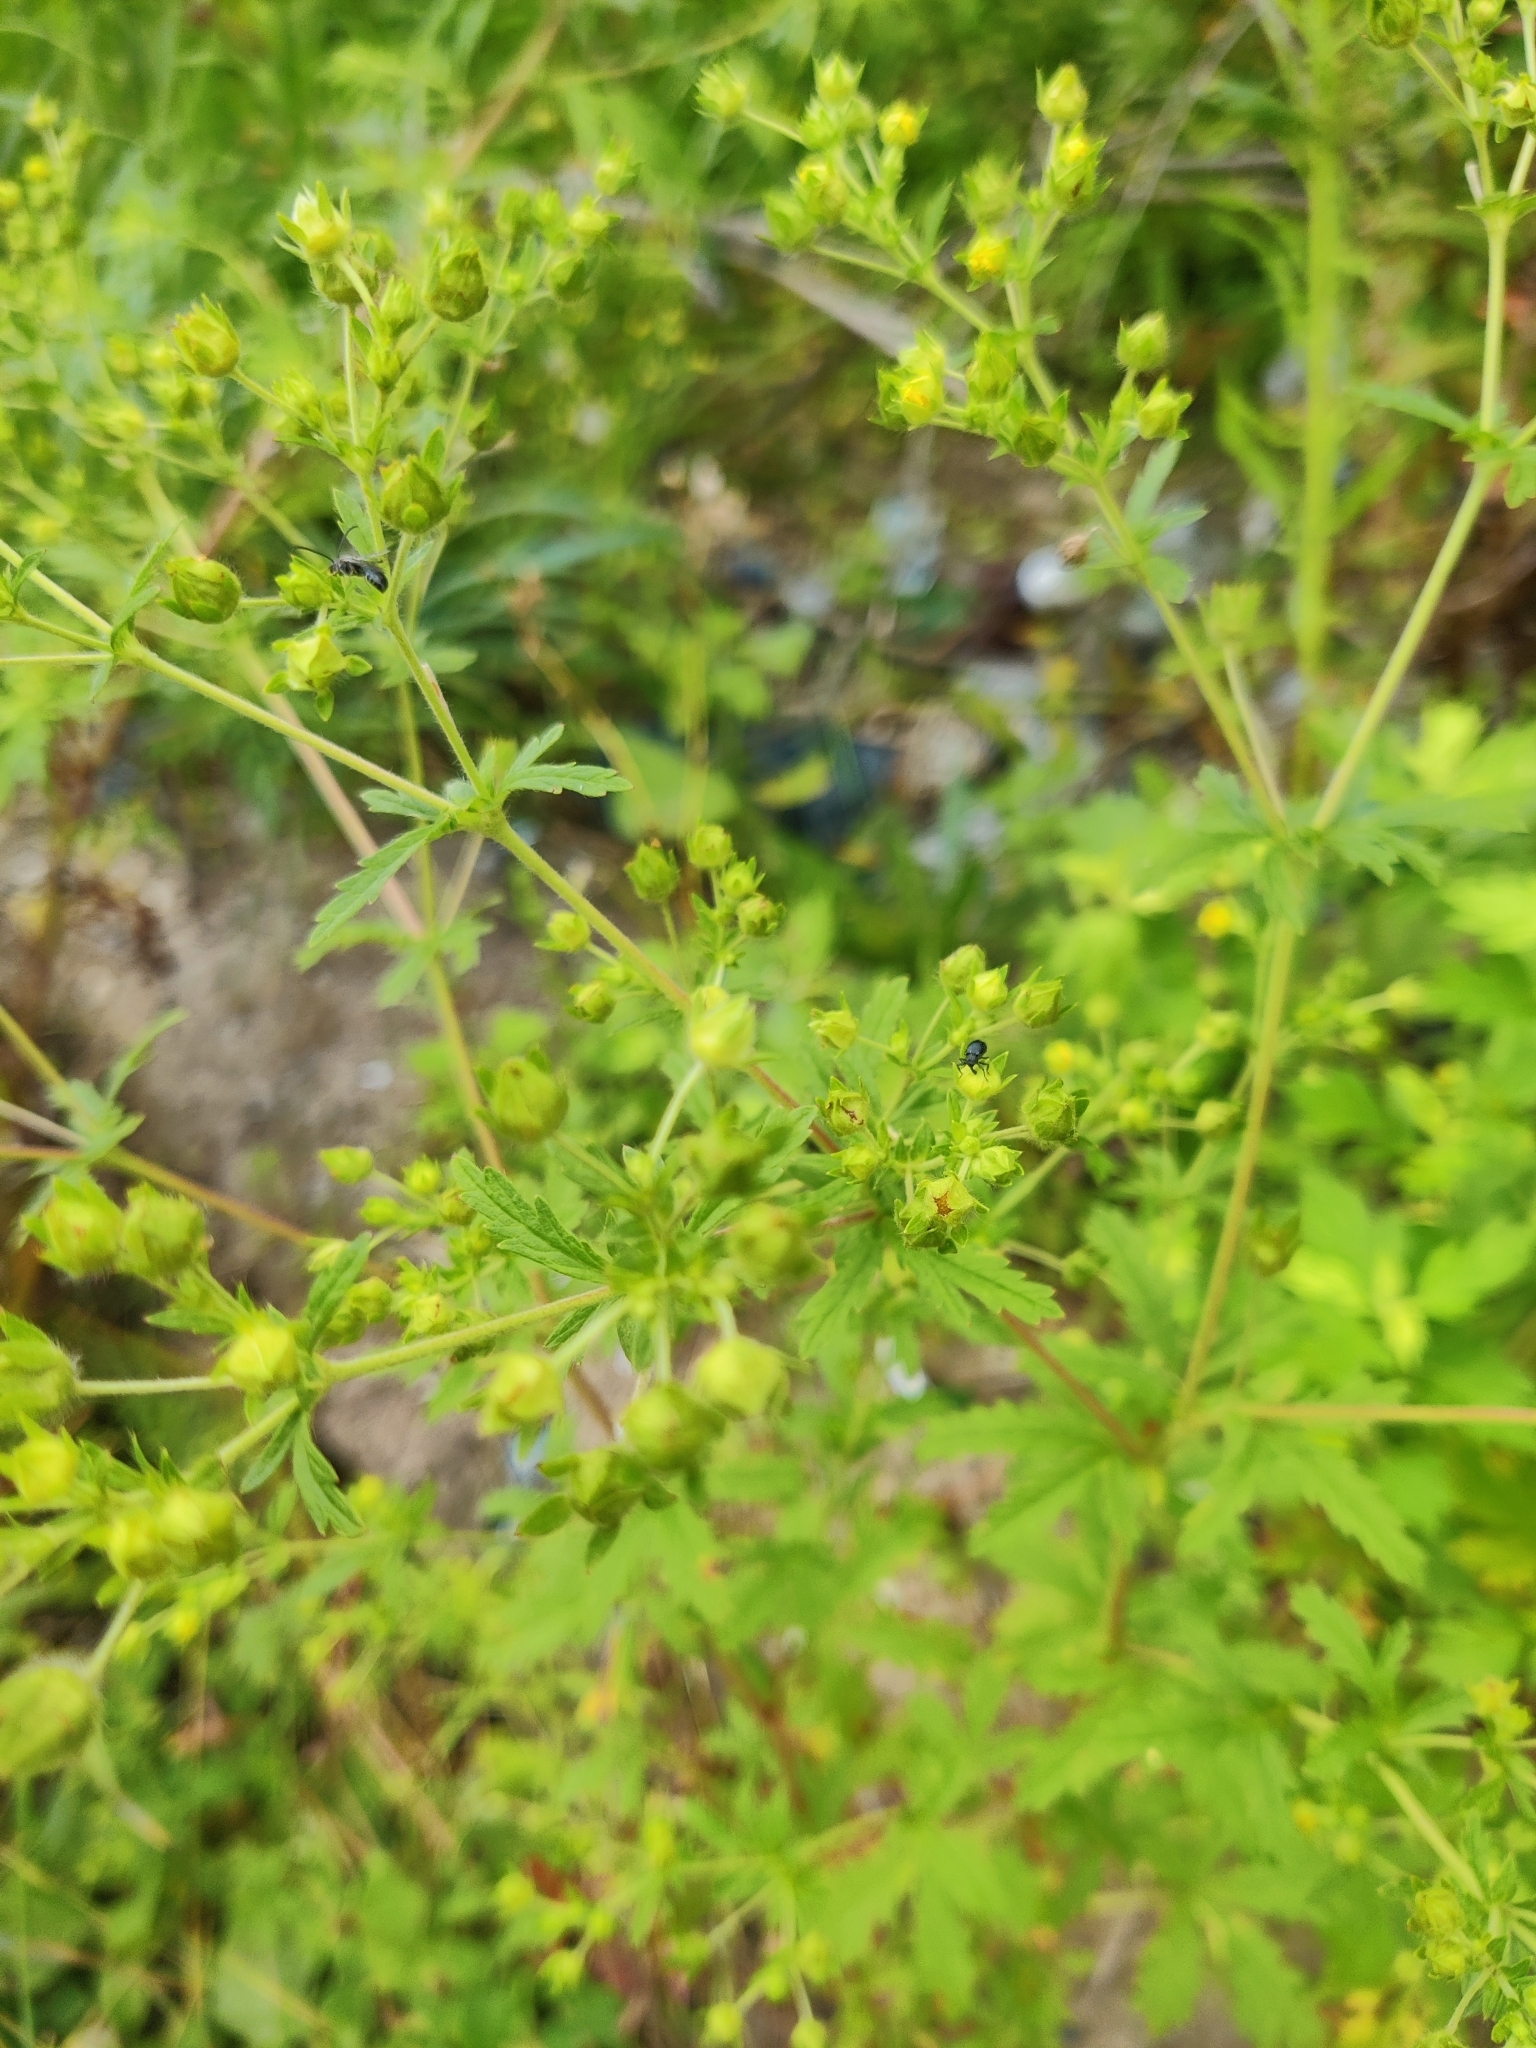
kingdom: Plantae
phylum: Tracheophyta
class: Magnoliopsida
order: Rosales
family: Rosaceae
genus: Potentilla
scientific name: Potentilla intermedia
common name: Downy cinquefoil
